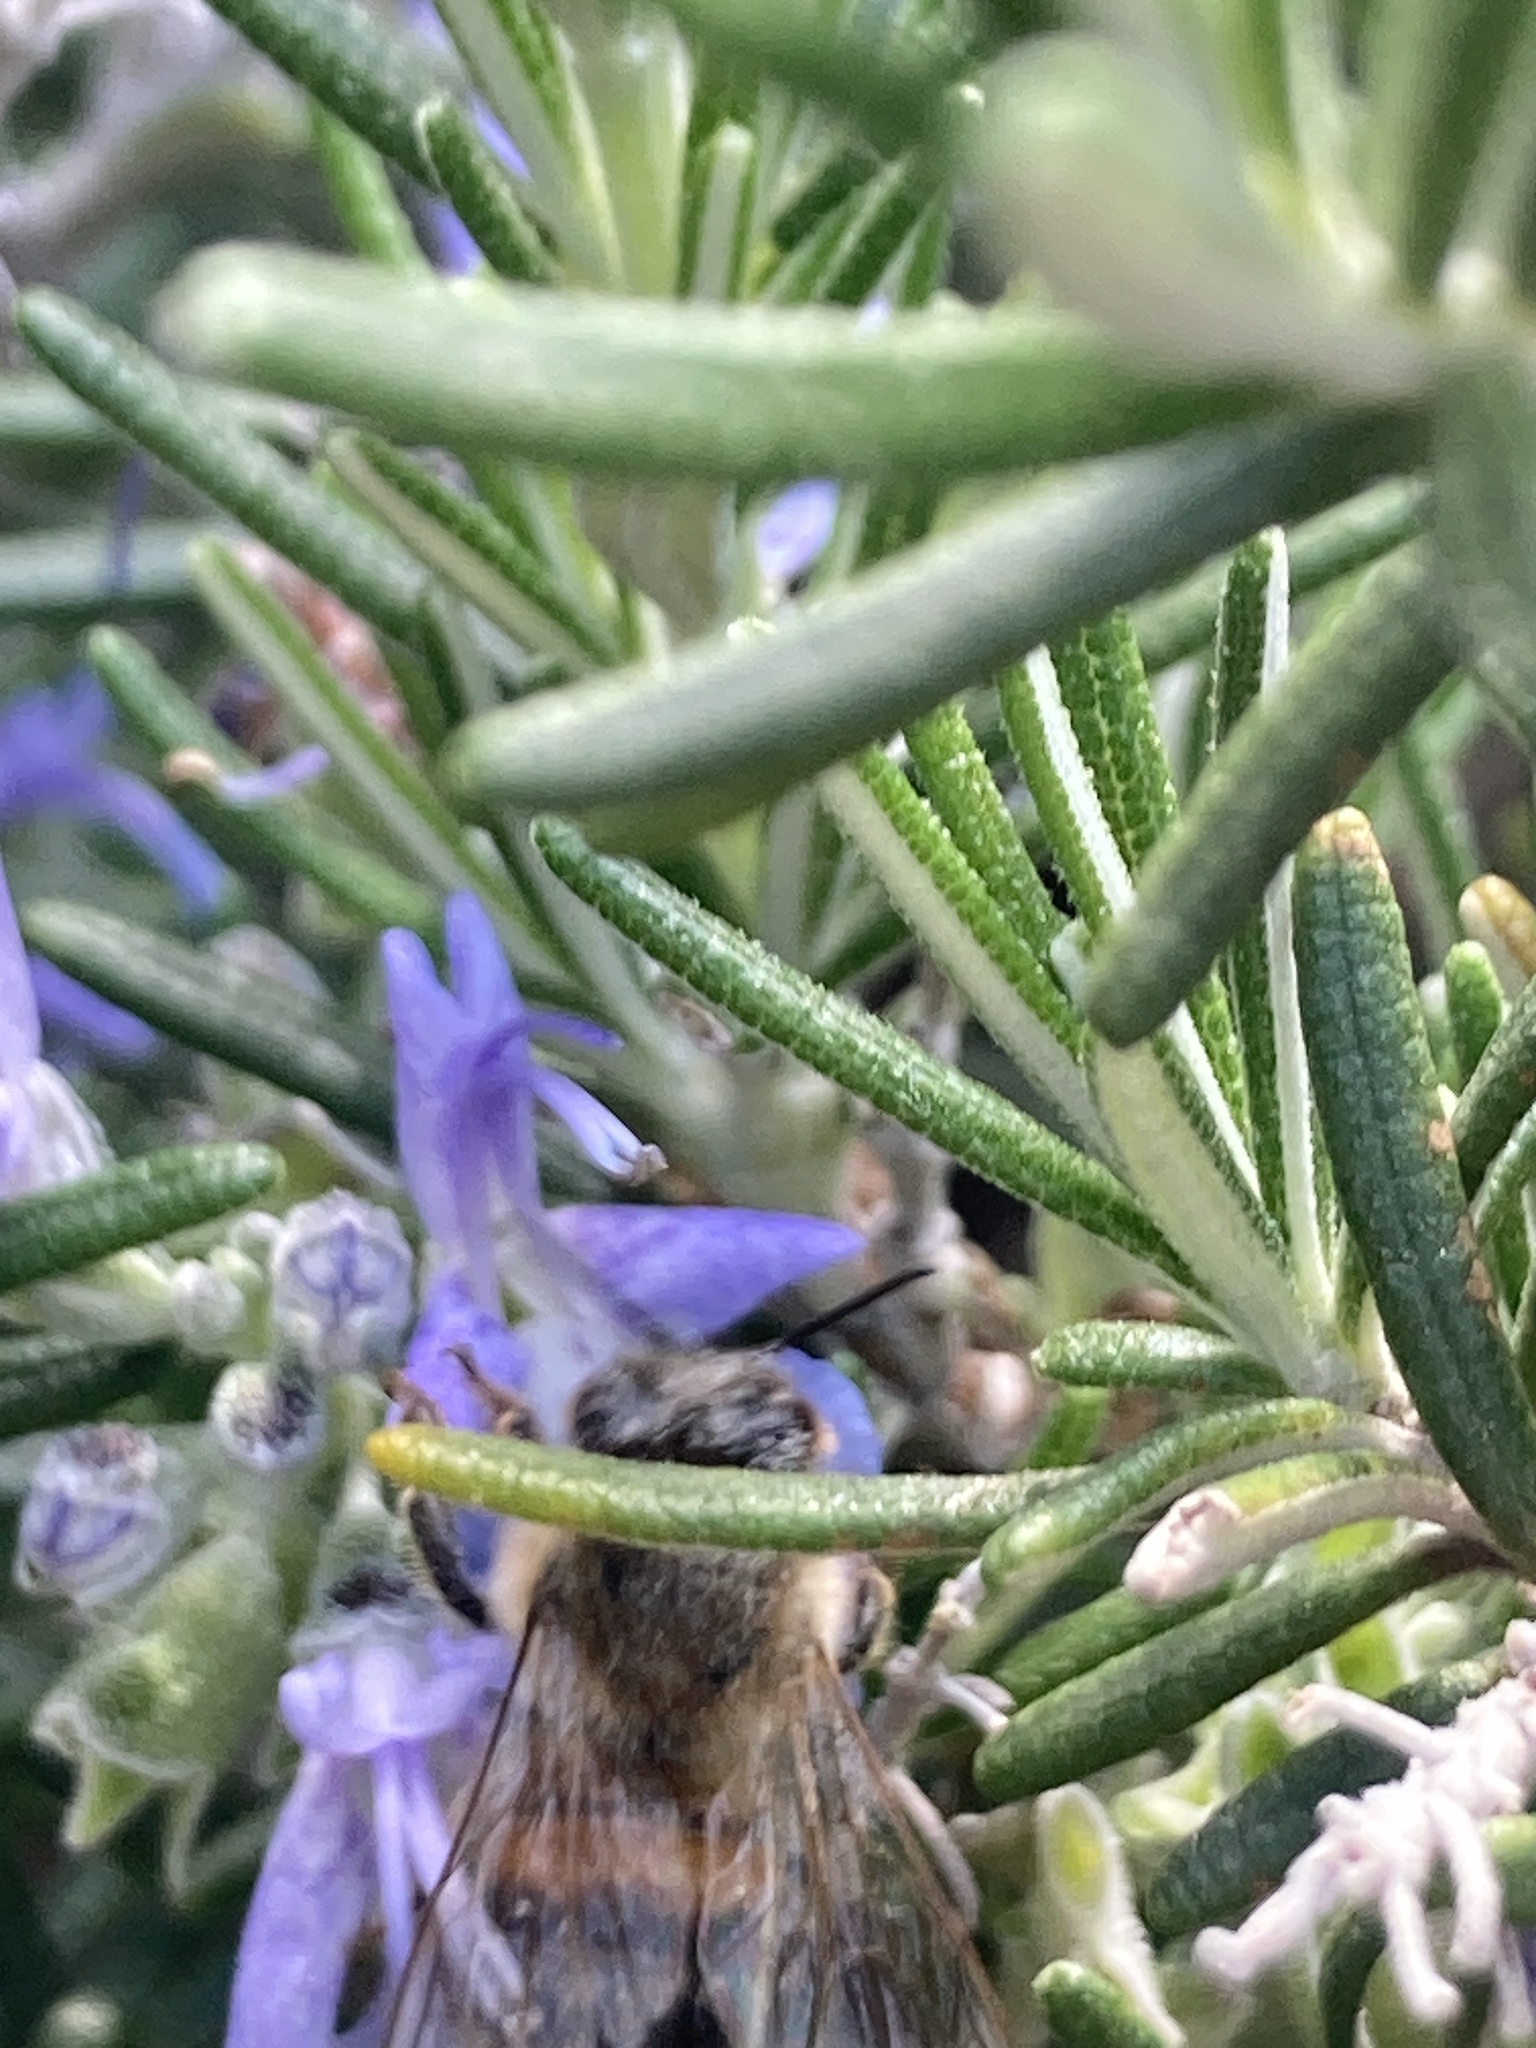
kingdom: Animalia
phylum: Arthropoda
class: Insecta
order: Hymenoptera
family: Apidae
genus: Apis
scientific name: Apis mellifera
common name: Honey bee
